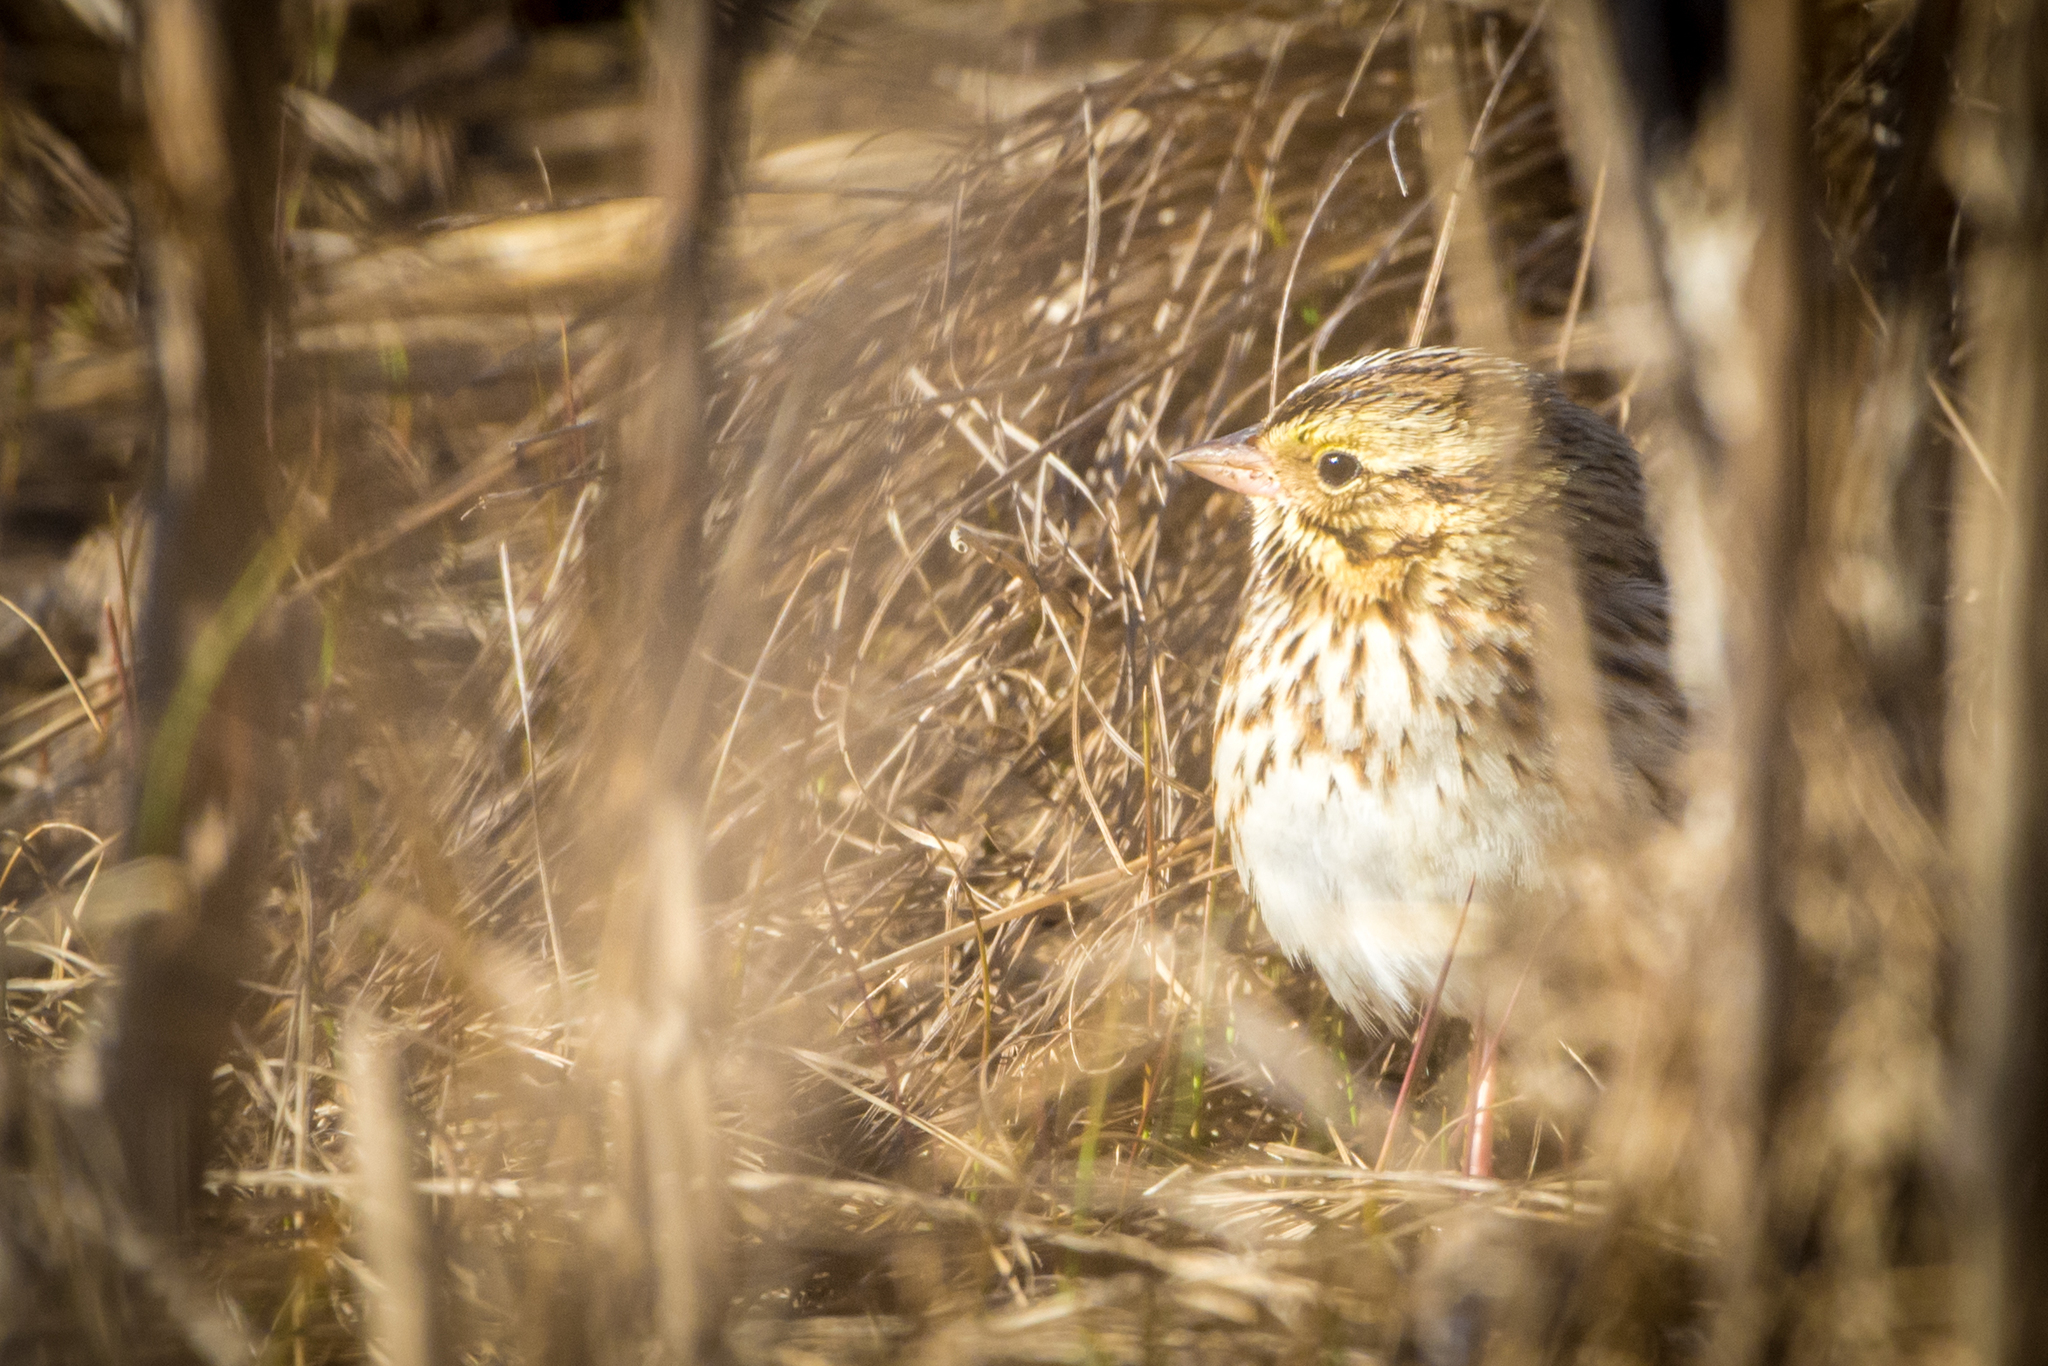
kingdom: Animalia
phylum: Chordata
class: Aves
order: Passeriformes
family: Passerellidae
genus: Passerculus
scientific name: Passerculus sandwichensis
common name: Savannah sparrow
